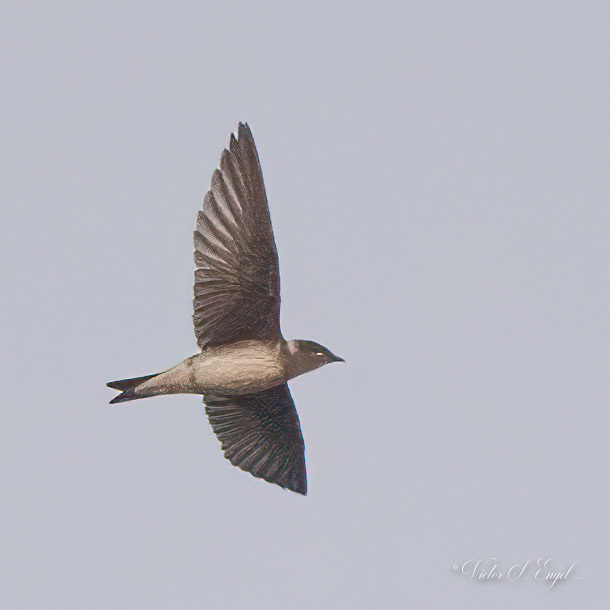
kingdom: Animalia
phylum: Chordata
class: Aves
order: Passeriformes
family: Hirundinidae
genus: Progne
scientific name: Progne subis
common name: Purple martin
